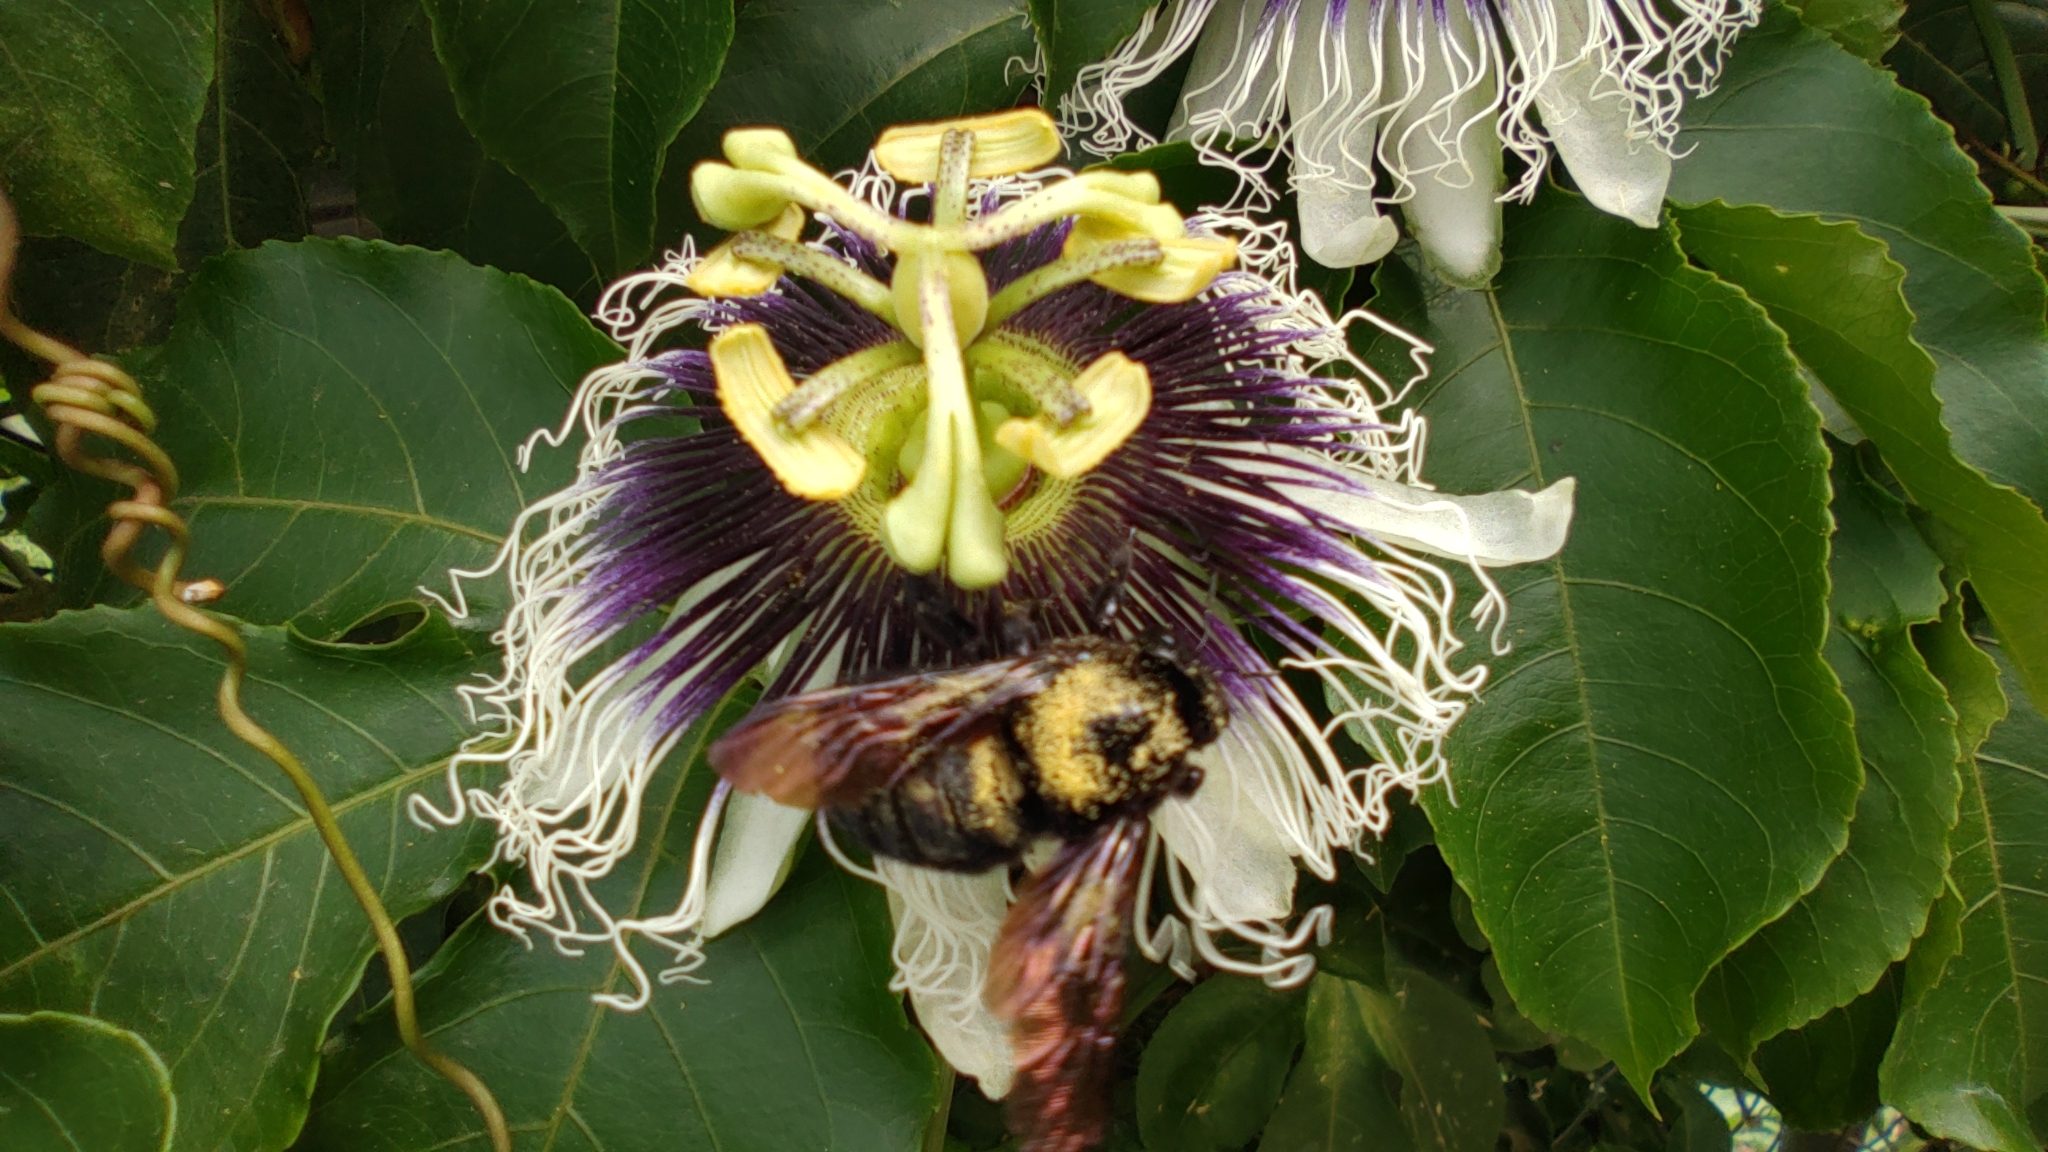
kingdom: Animalia
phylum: Arthropoda
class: Insecta
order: Hymenoptera
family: Apidae
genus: Xylocopa
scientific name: Xylocopa sonorina
